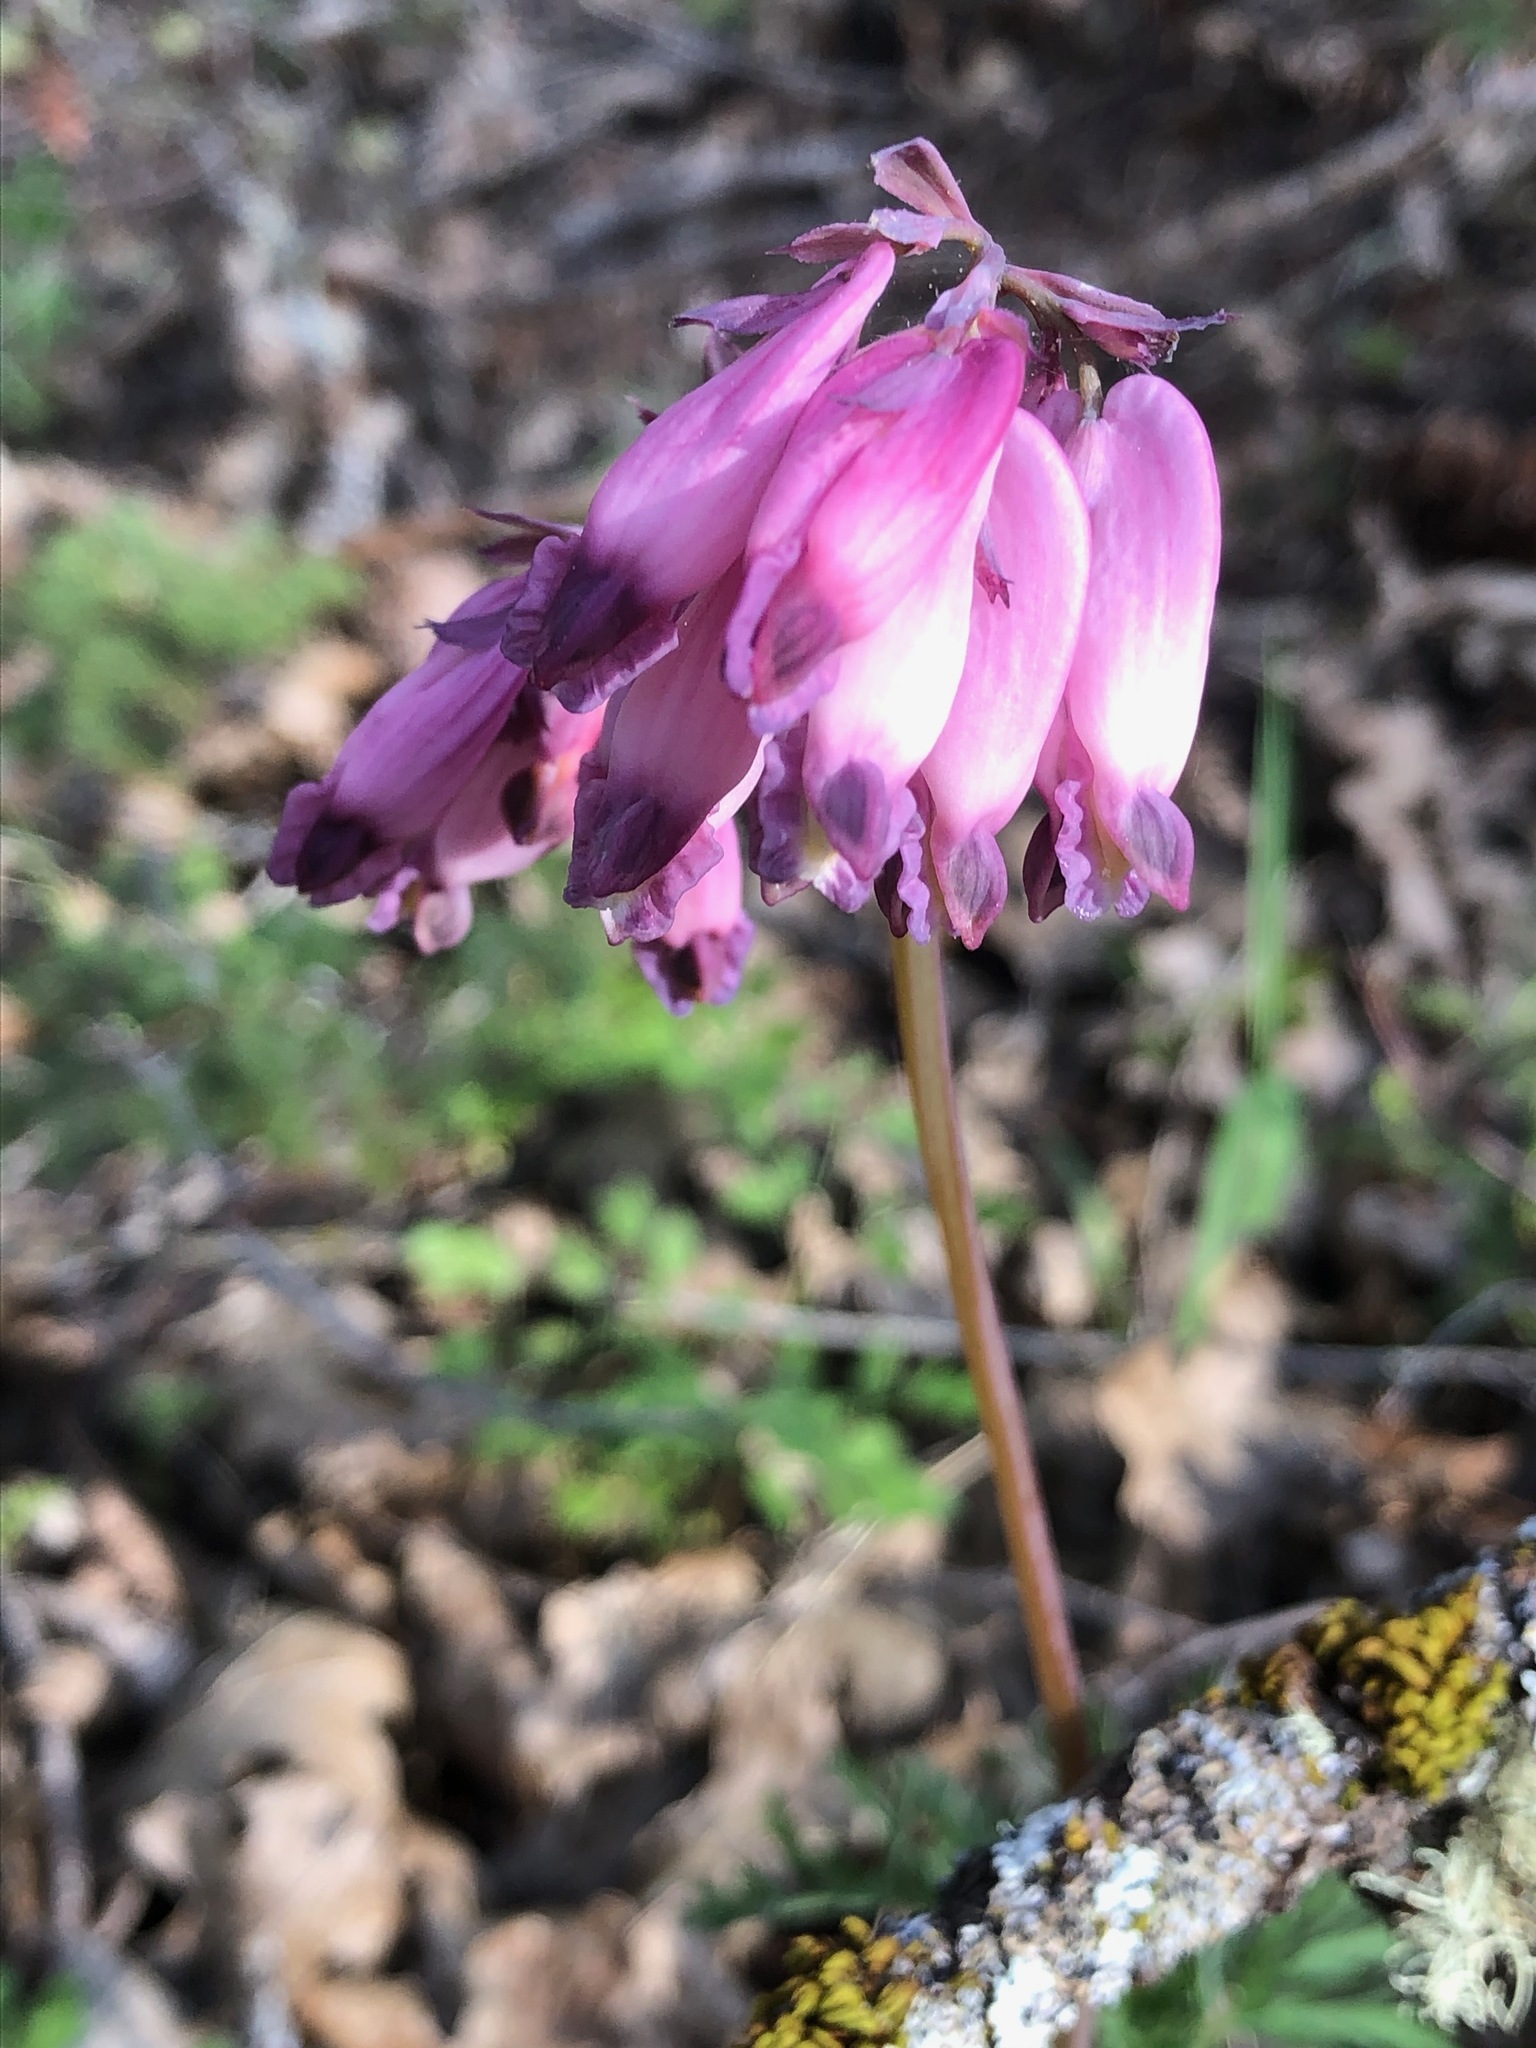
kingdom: Plantae
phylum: Tracheophyta
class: Magnoliopsida
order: Ranunculales
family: Papaveraceae
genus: Dicentra
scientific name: Dicentra formosa
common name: Bleeding-heart
